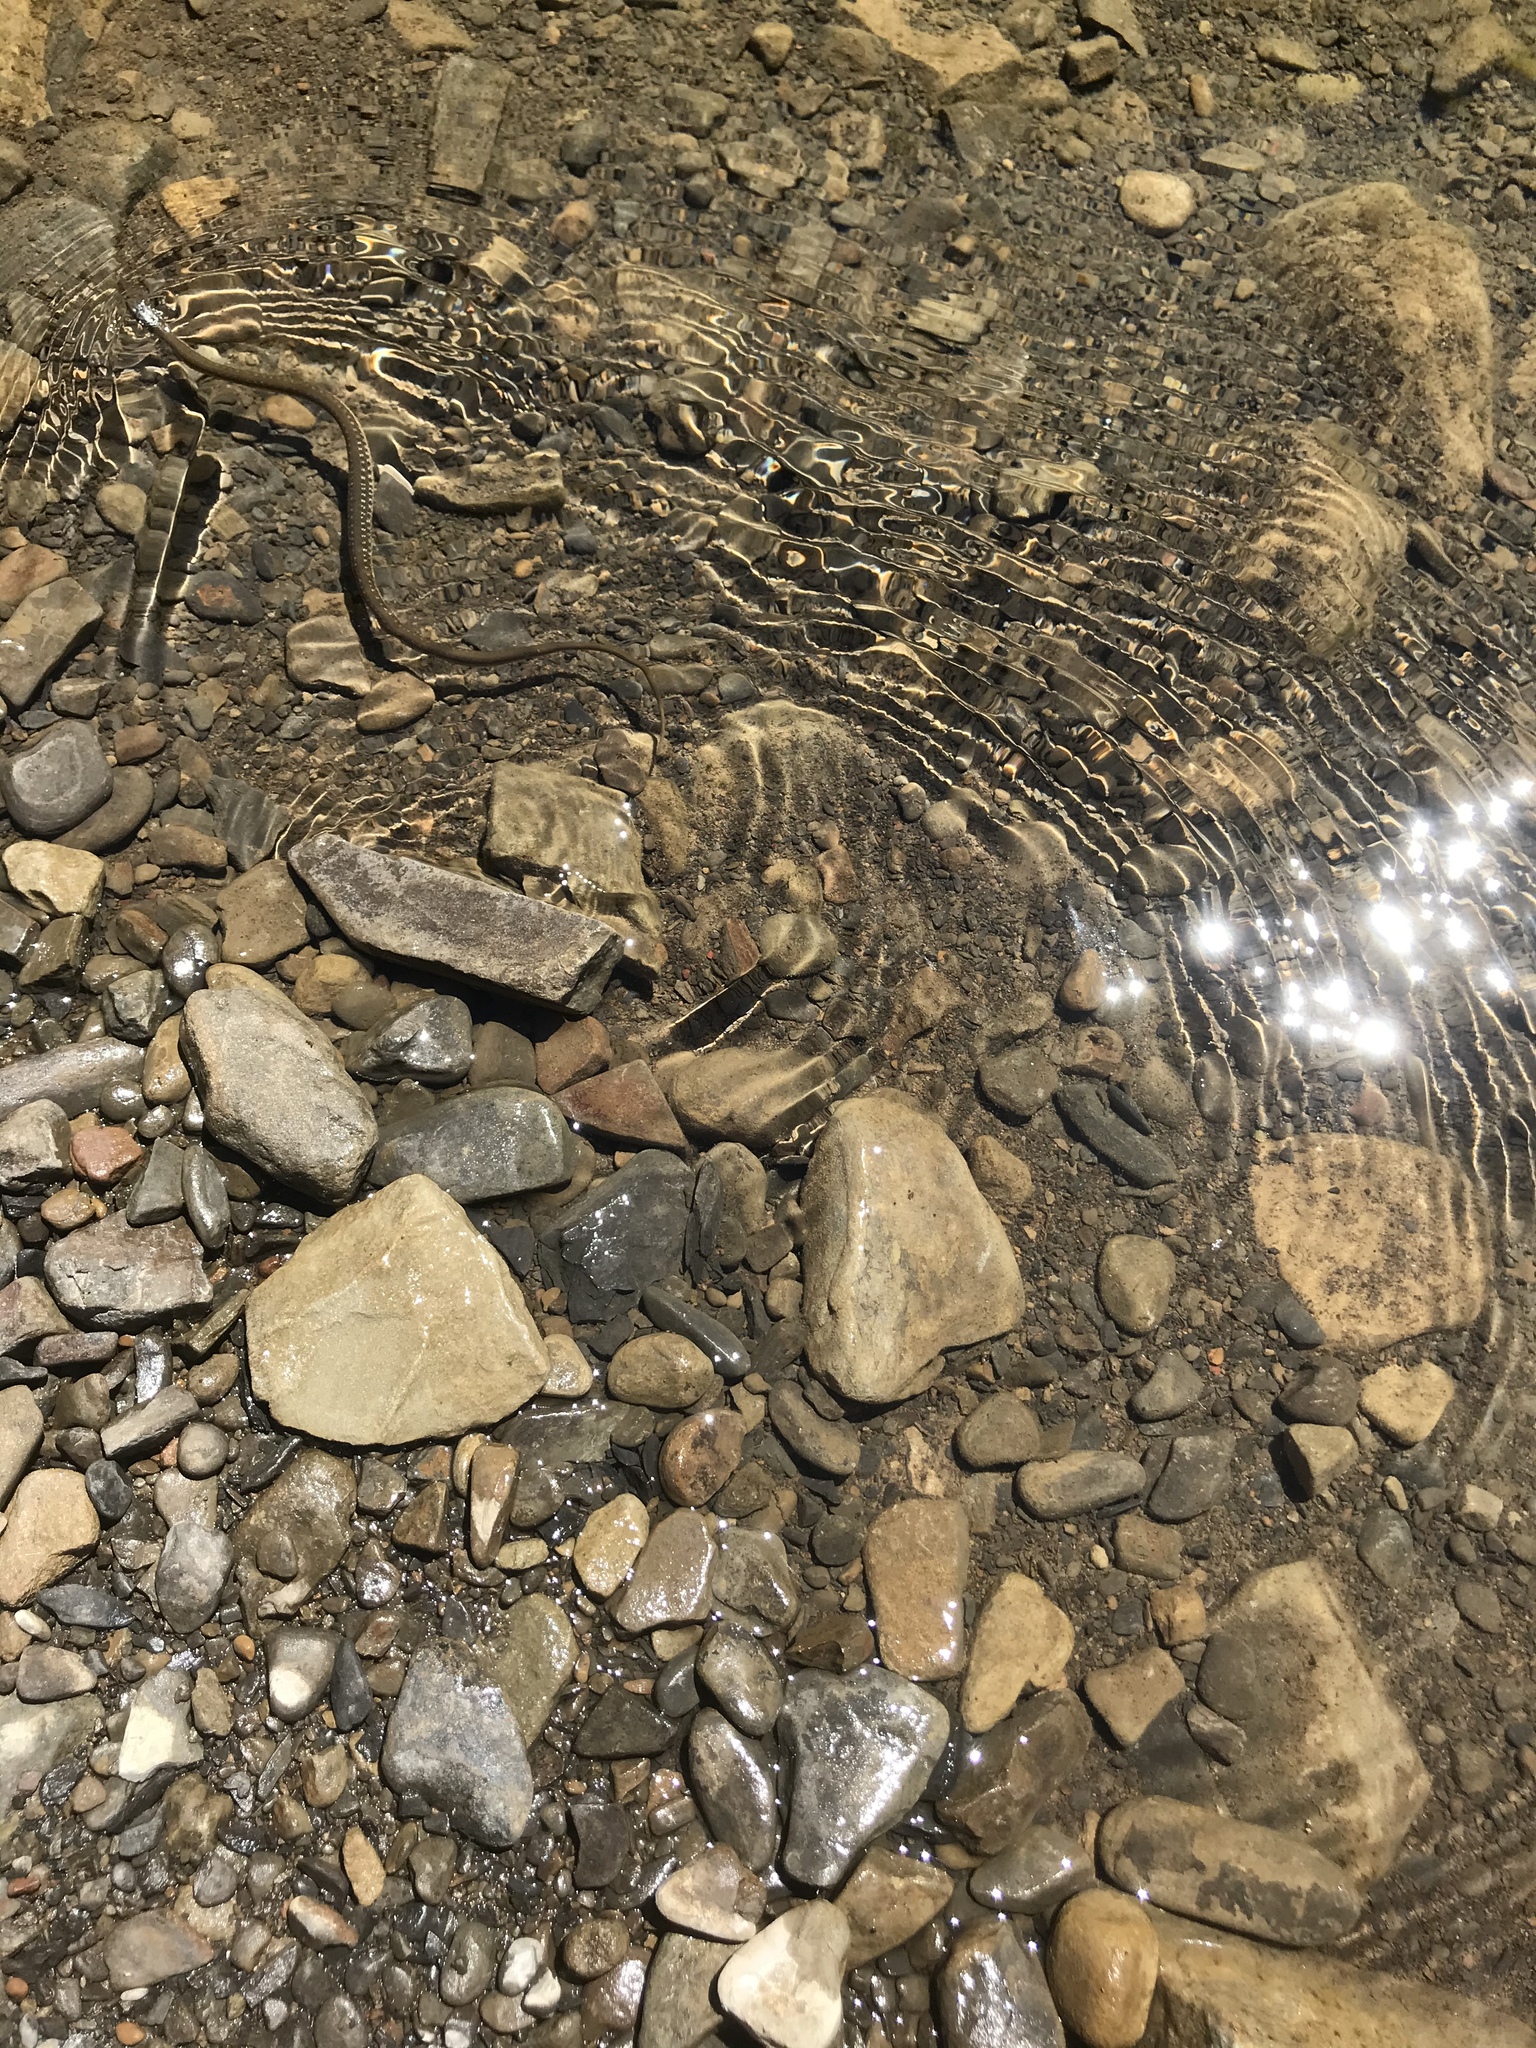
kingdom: Animalia
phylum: Chordata
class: Squamata
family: Colubridae
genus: Thamnophis
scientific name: Thamnophis hammondii
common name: Two-striped garter snake
